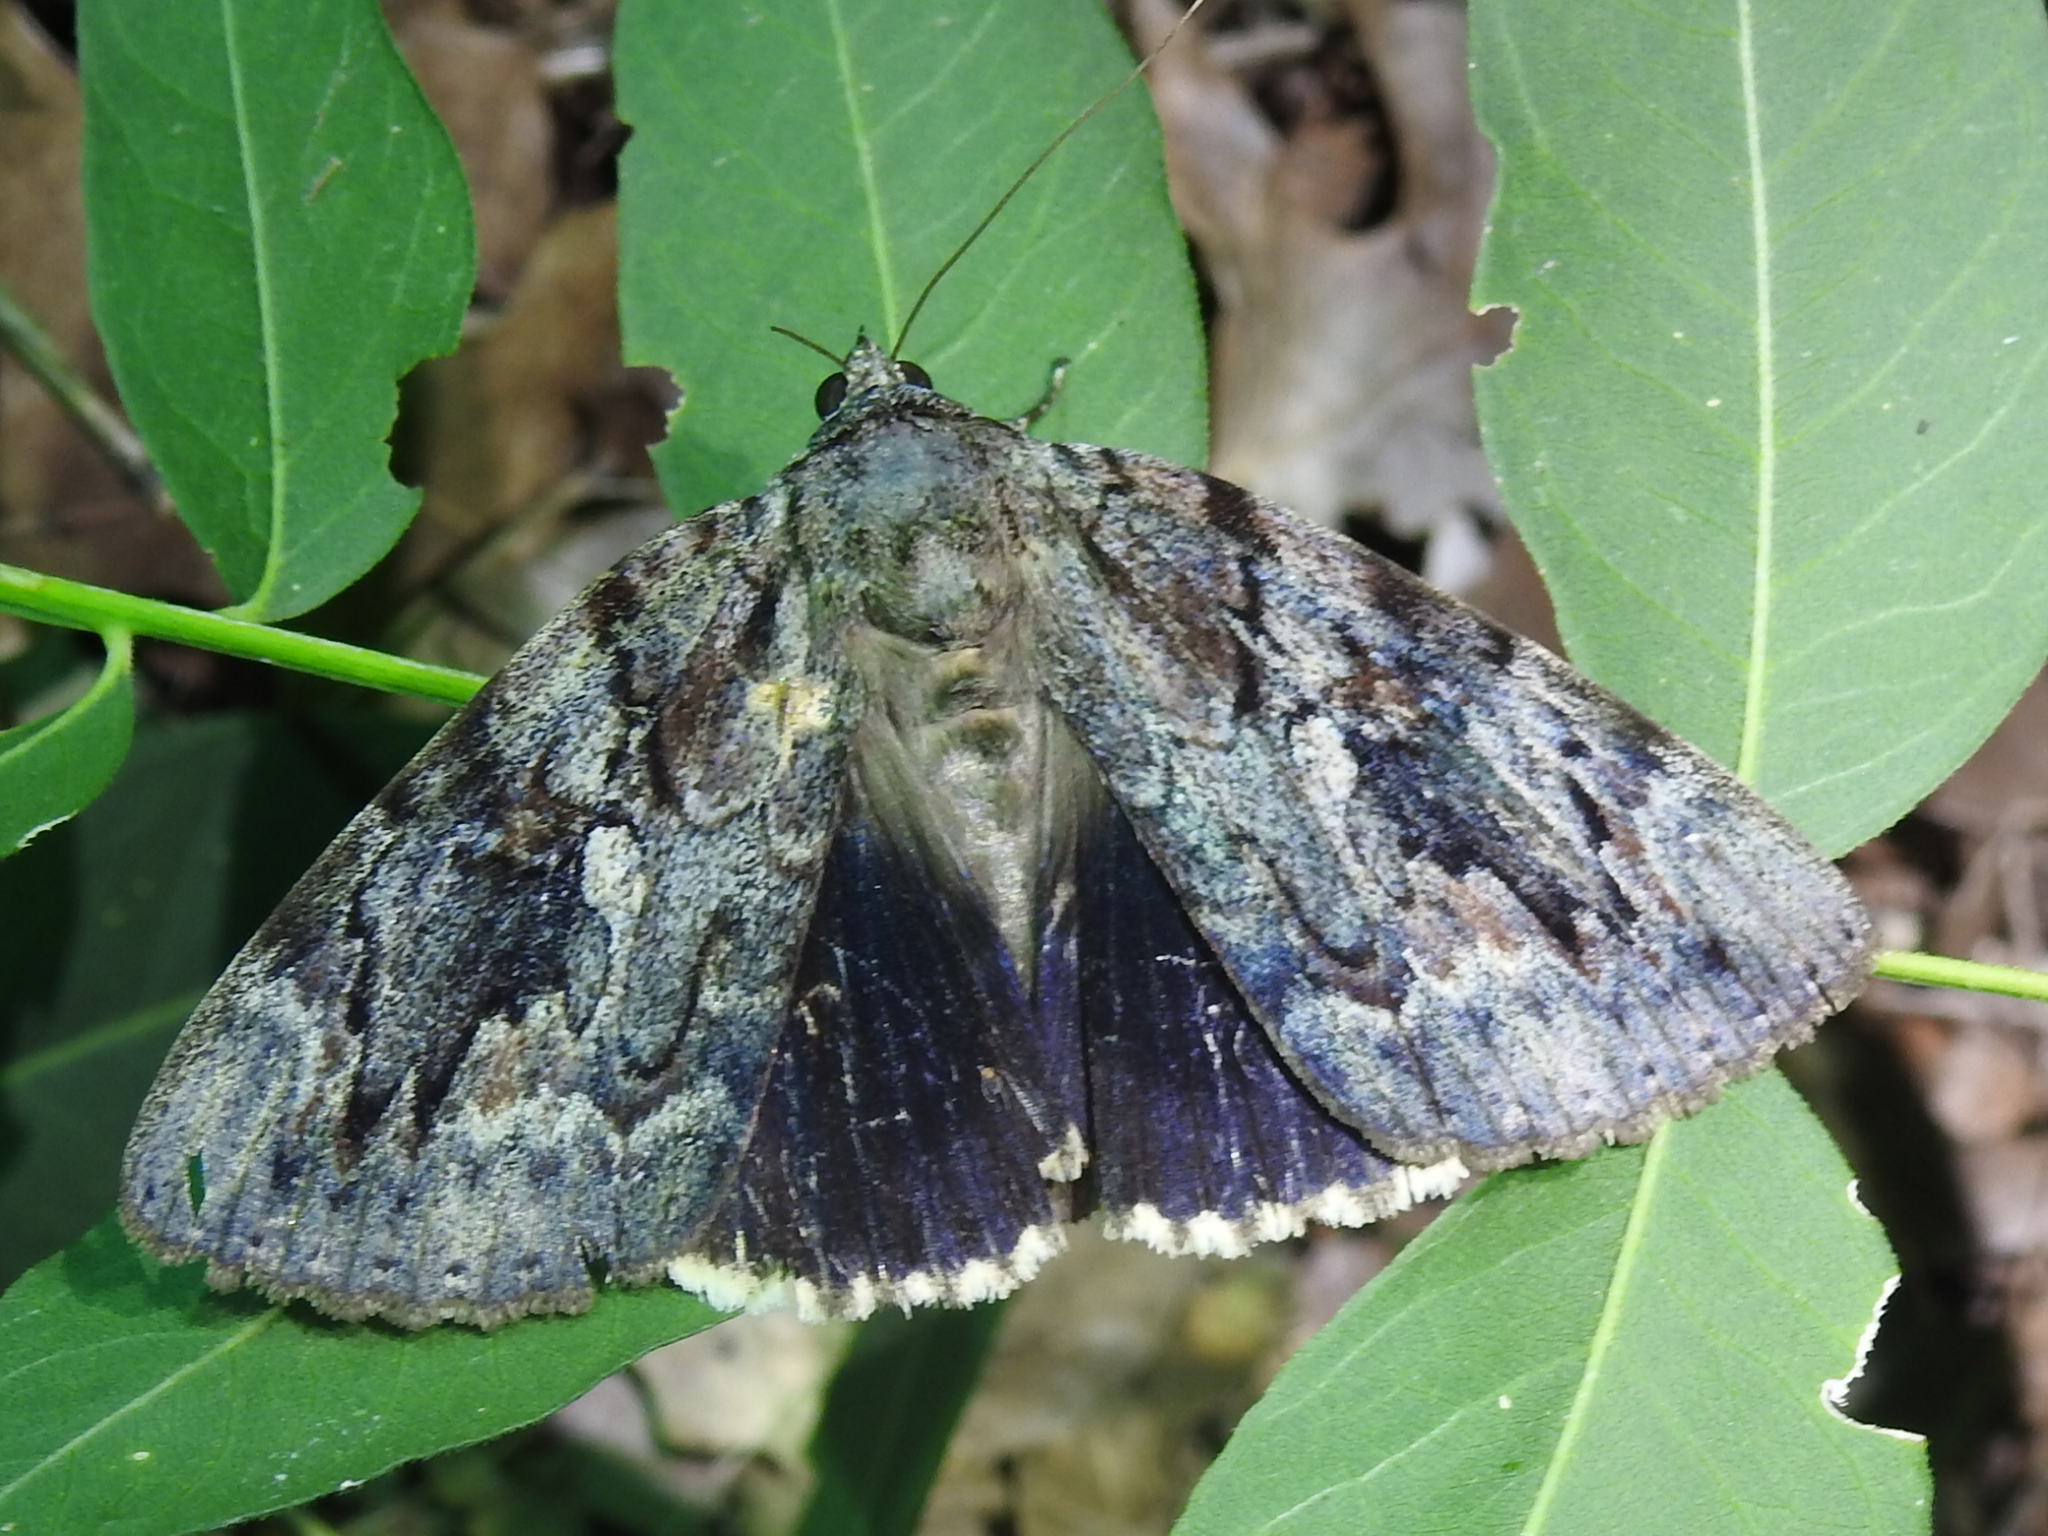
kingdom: Animalia
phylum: Arthropoda
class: Insecta
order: Lepidoptera
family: Erebidae
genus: Catocala
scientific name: Catocala agrippina
